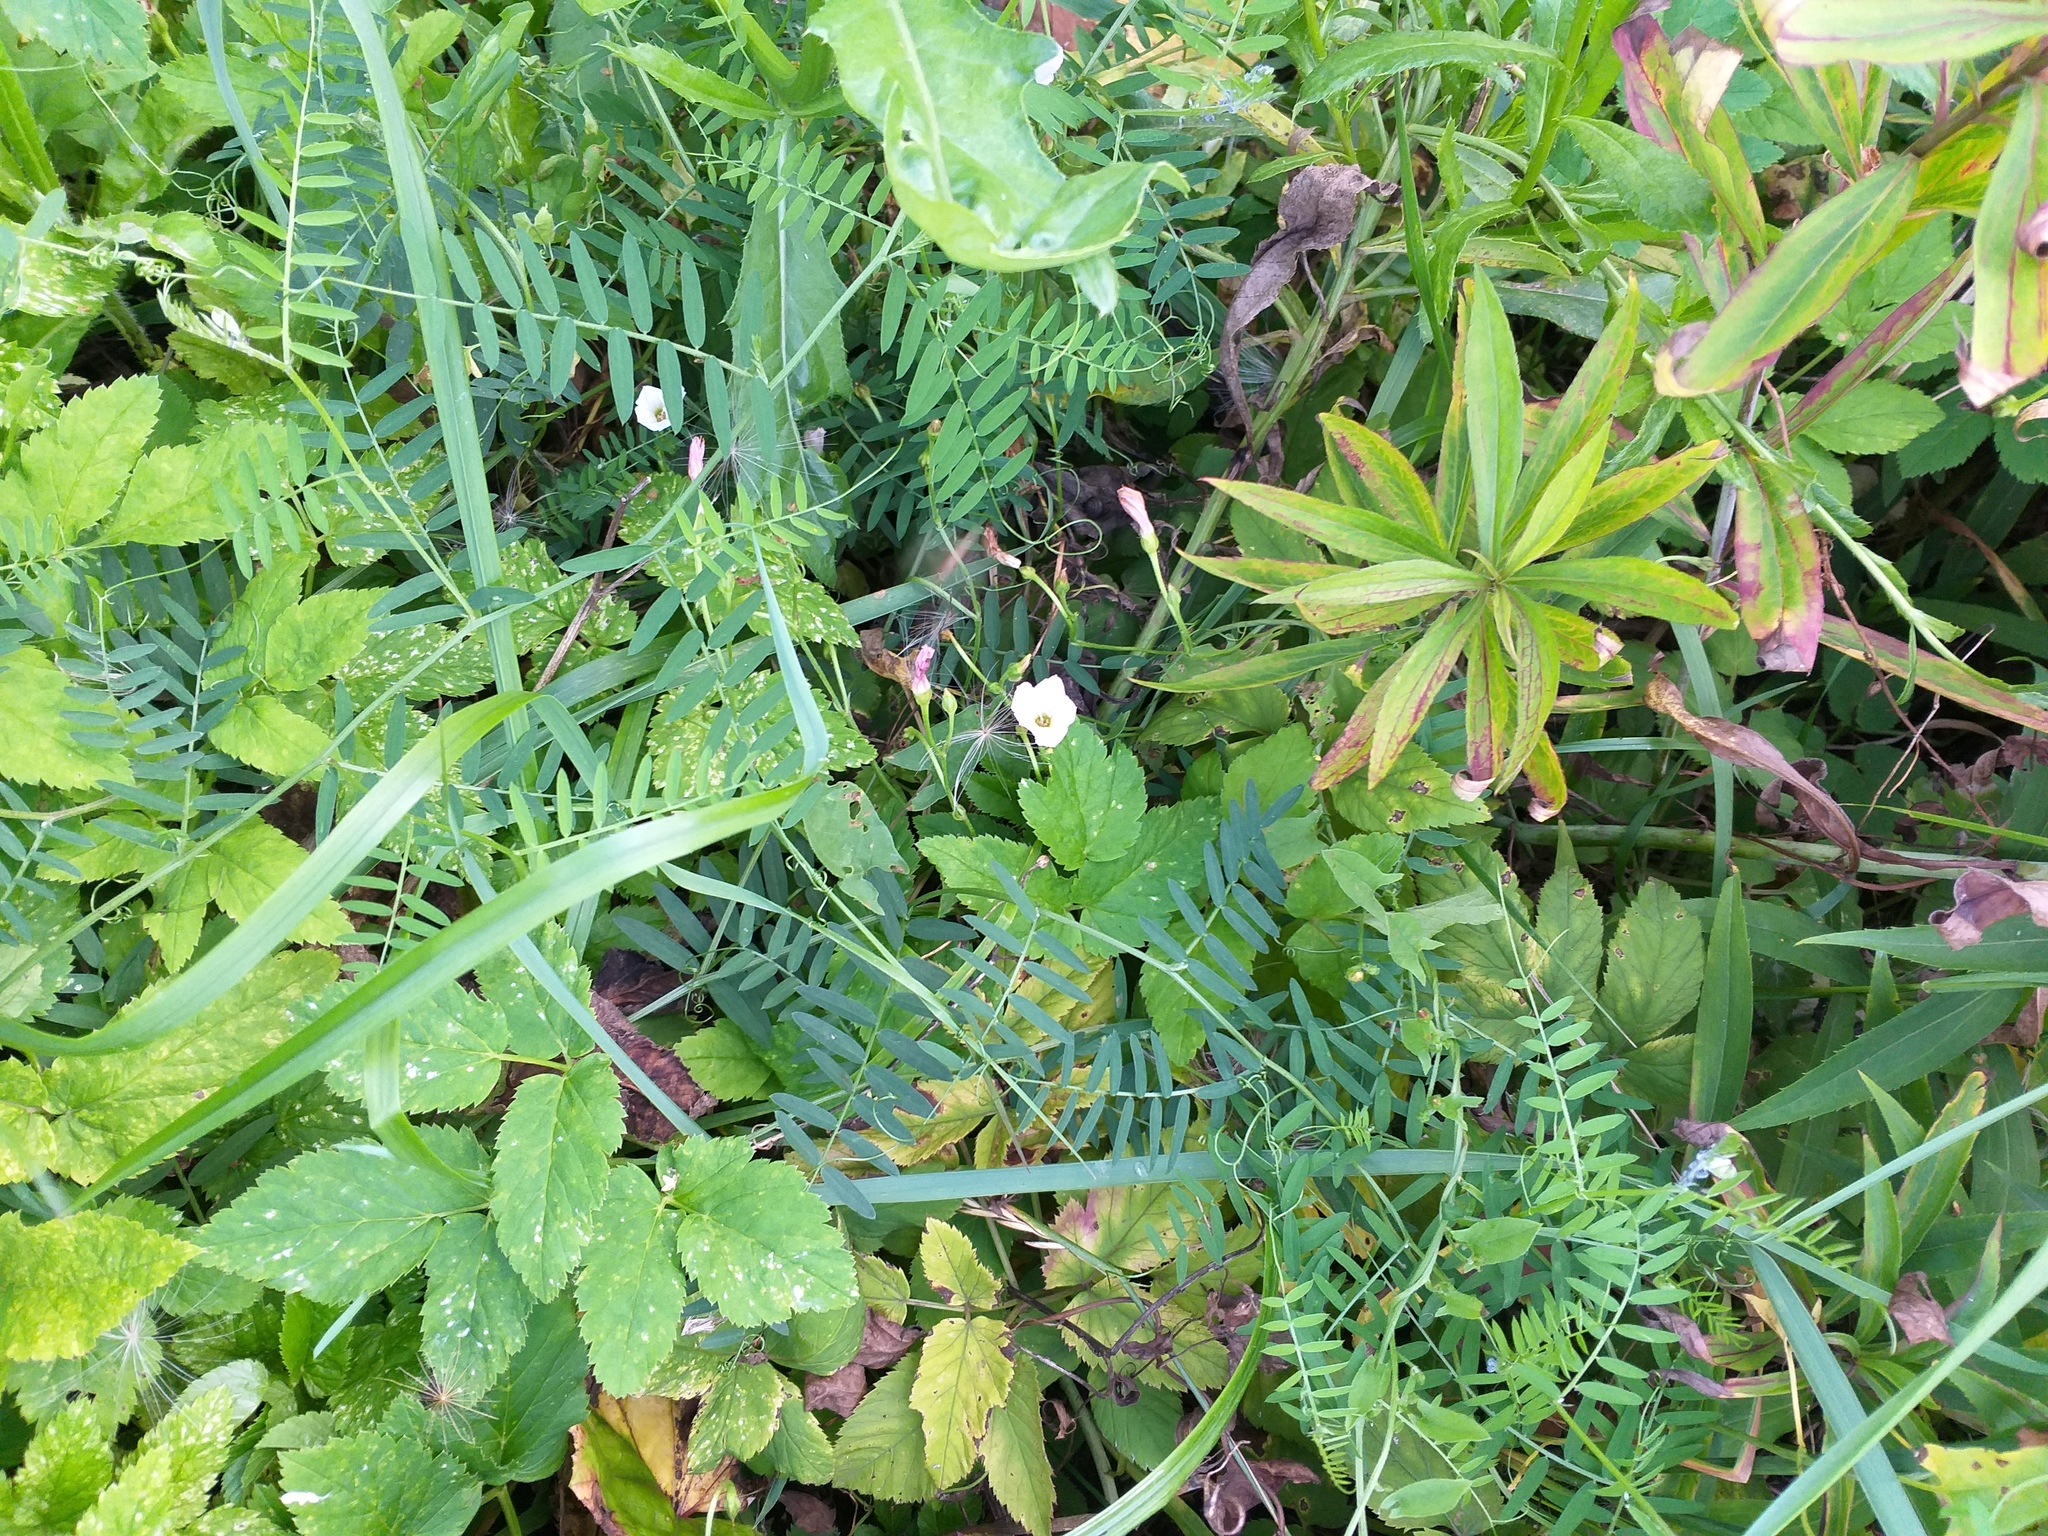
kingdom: Plantae
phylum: Tracheophyta
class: Magnoliopsida
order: Solanales
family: Convolvulaceae
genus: Convolvulus
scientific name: Convolvulus arvensis
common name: Field bindweed
